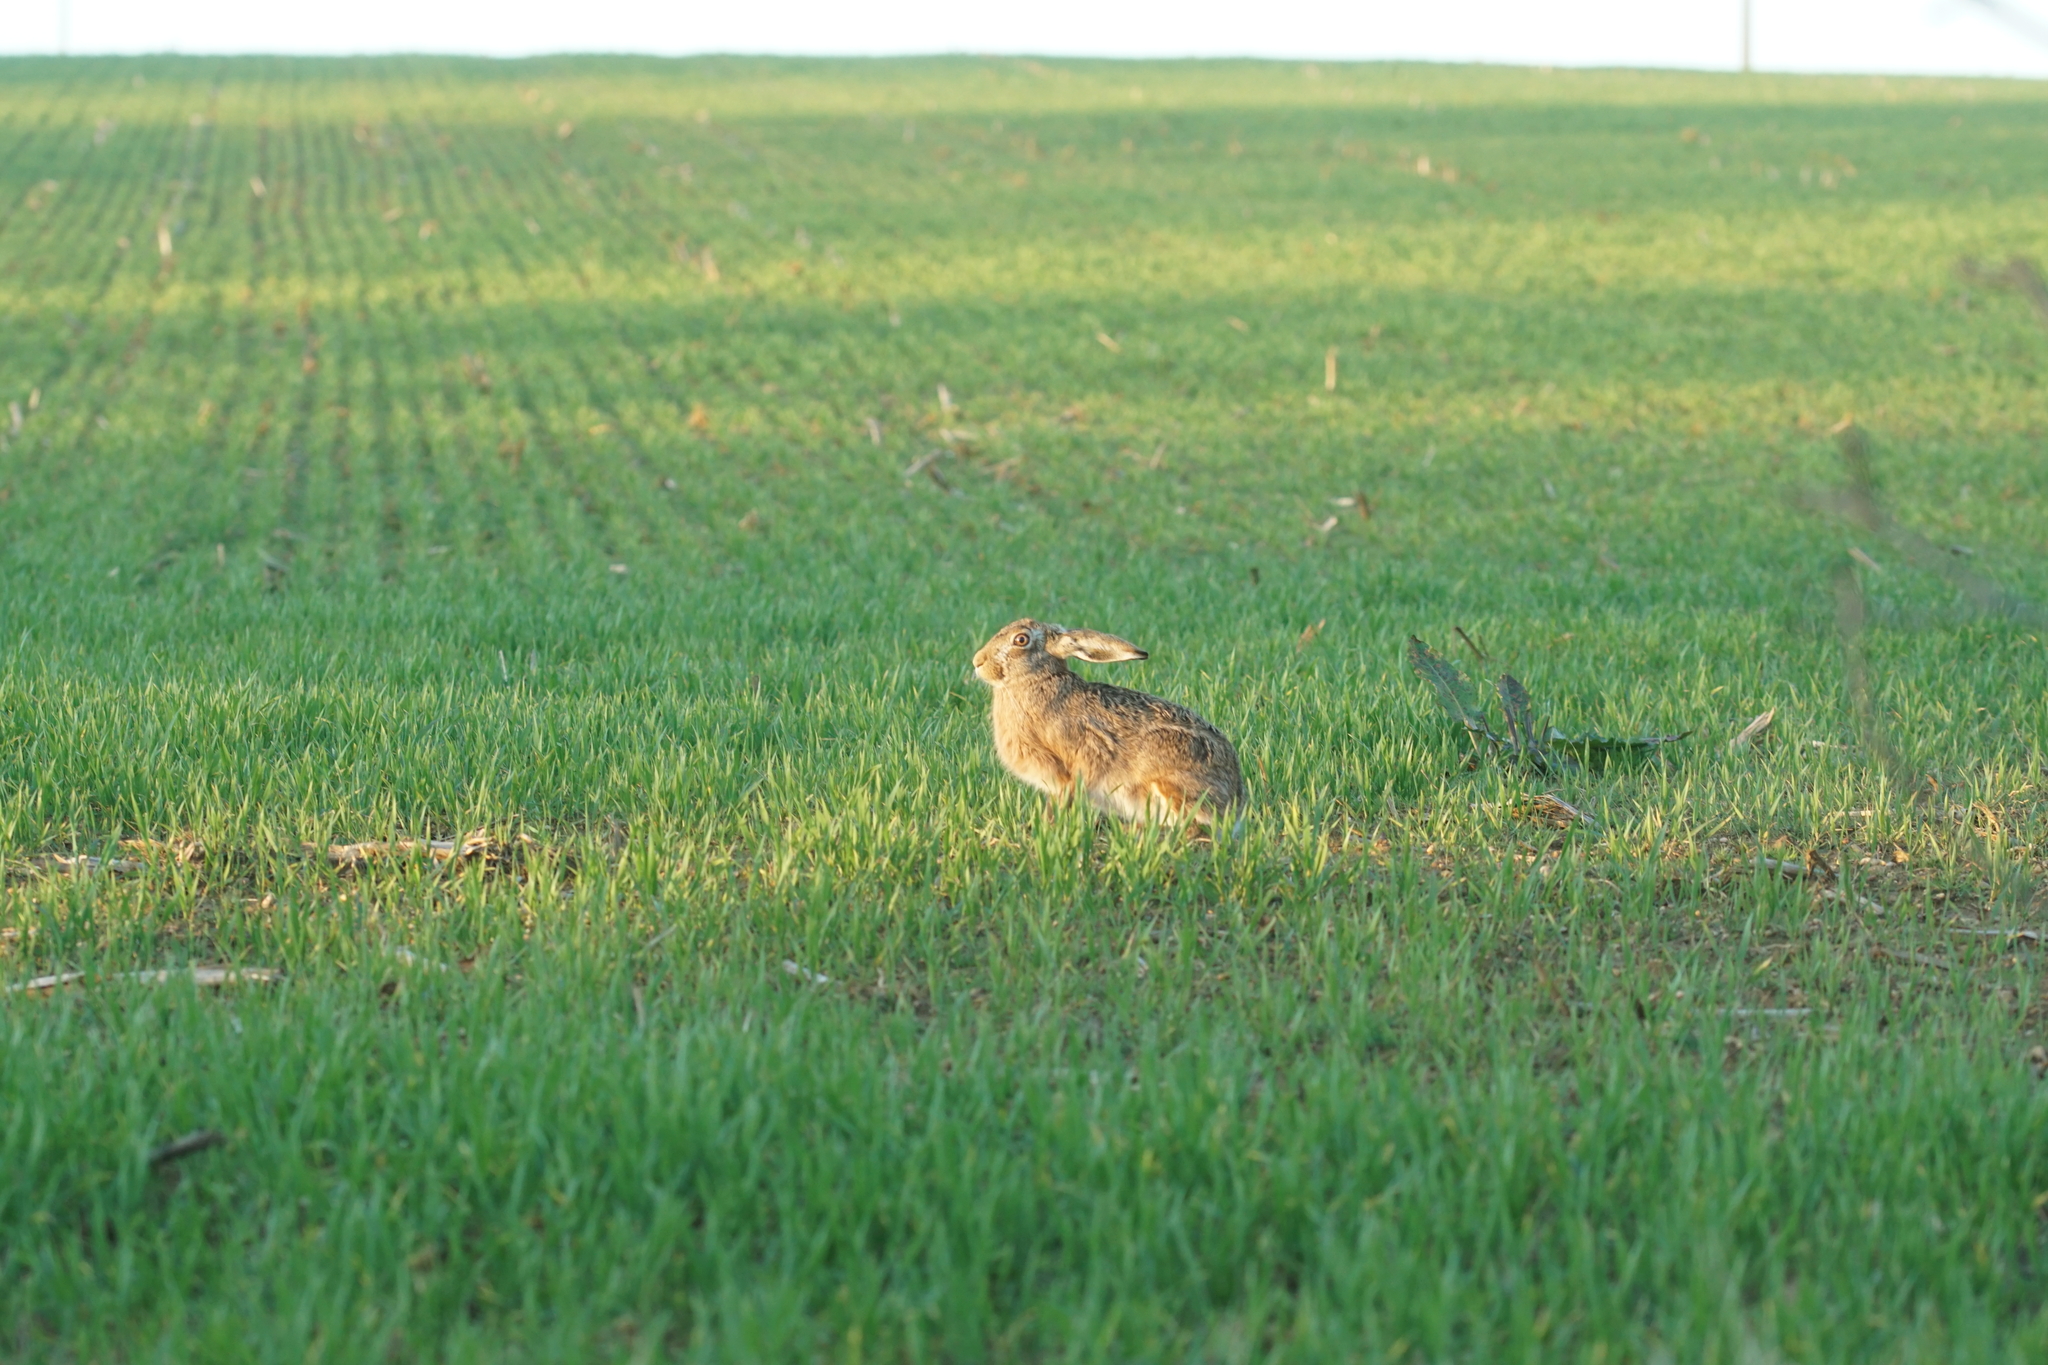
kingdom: Animalia
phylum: Chordata
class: Mammalia
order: Lagomorpha
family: Leporidae
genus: Lepus
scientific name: Lepus europaeus
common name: European hare
